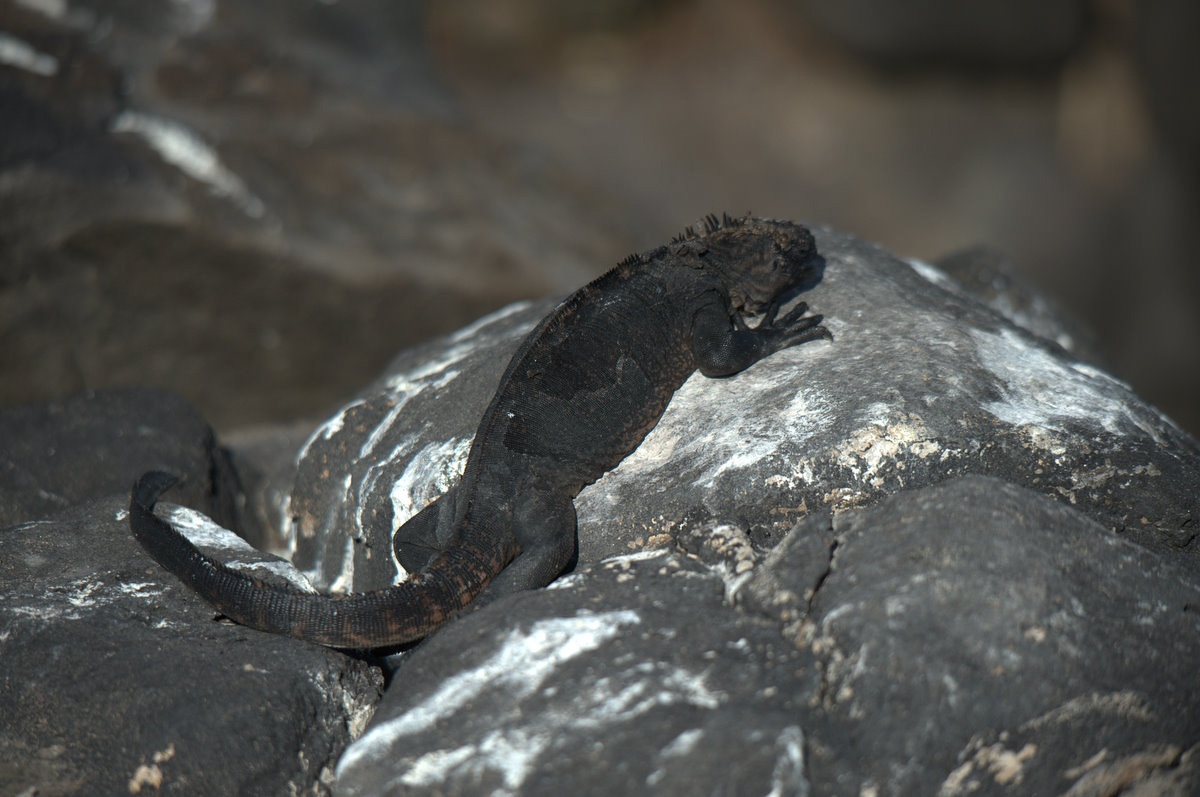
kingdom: Animalia
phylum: Chordata
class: Squamata
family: Iguanidae
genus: Amblyrhynchus
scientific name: Amblyrhynchus cristatus
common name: Marine iguana
